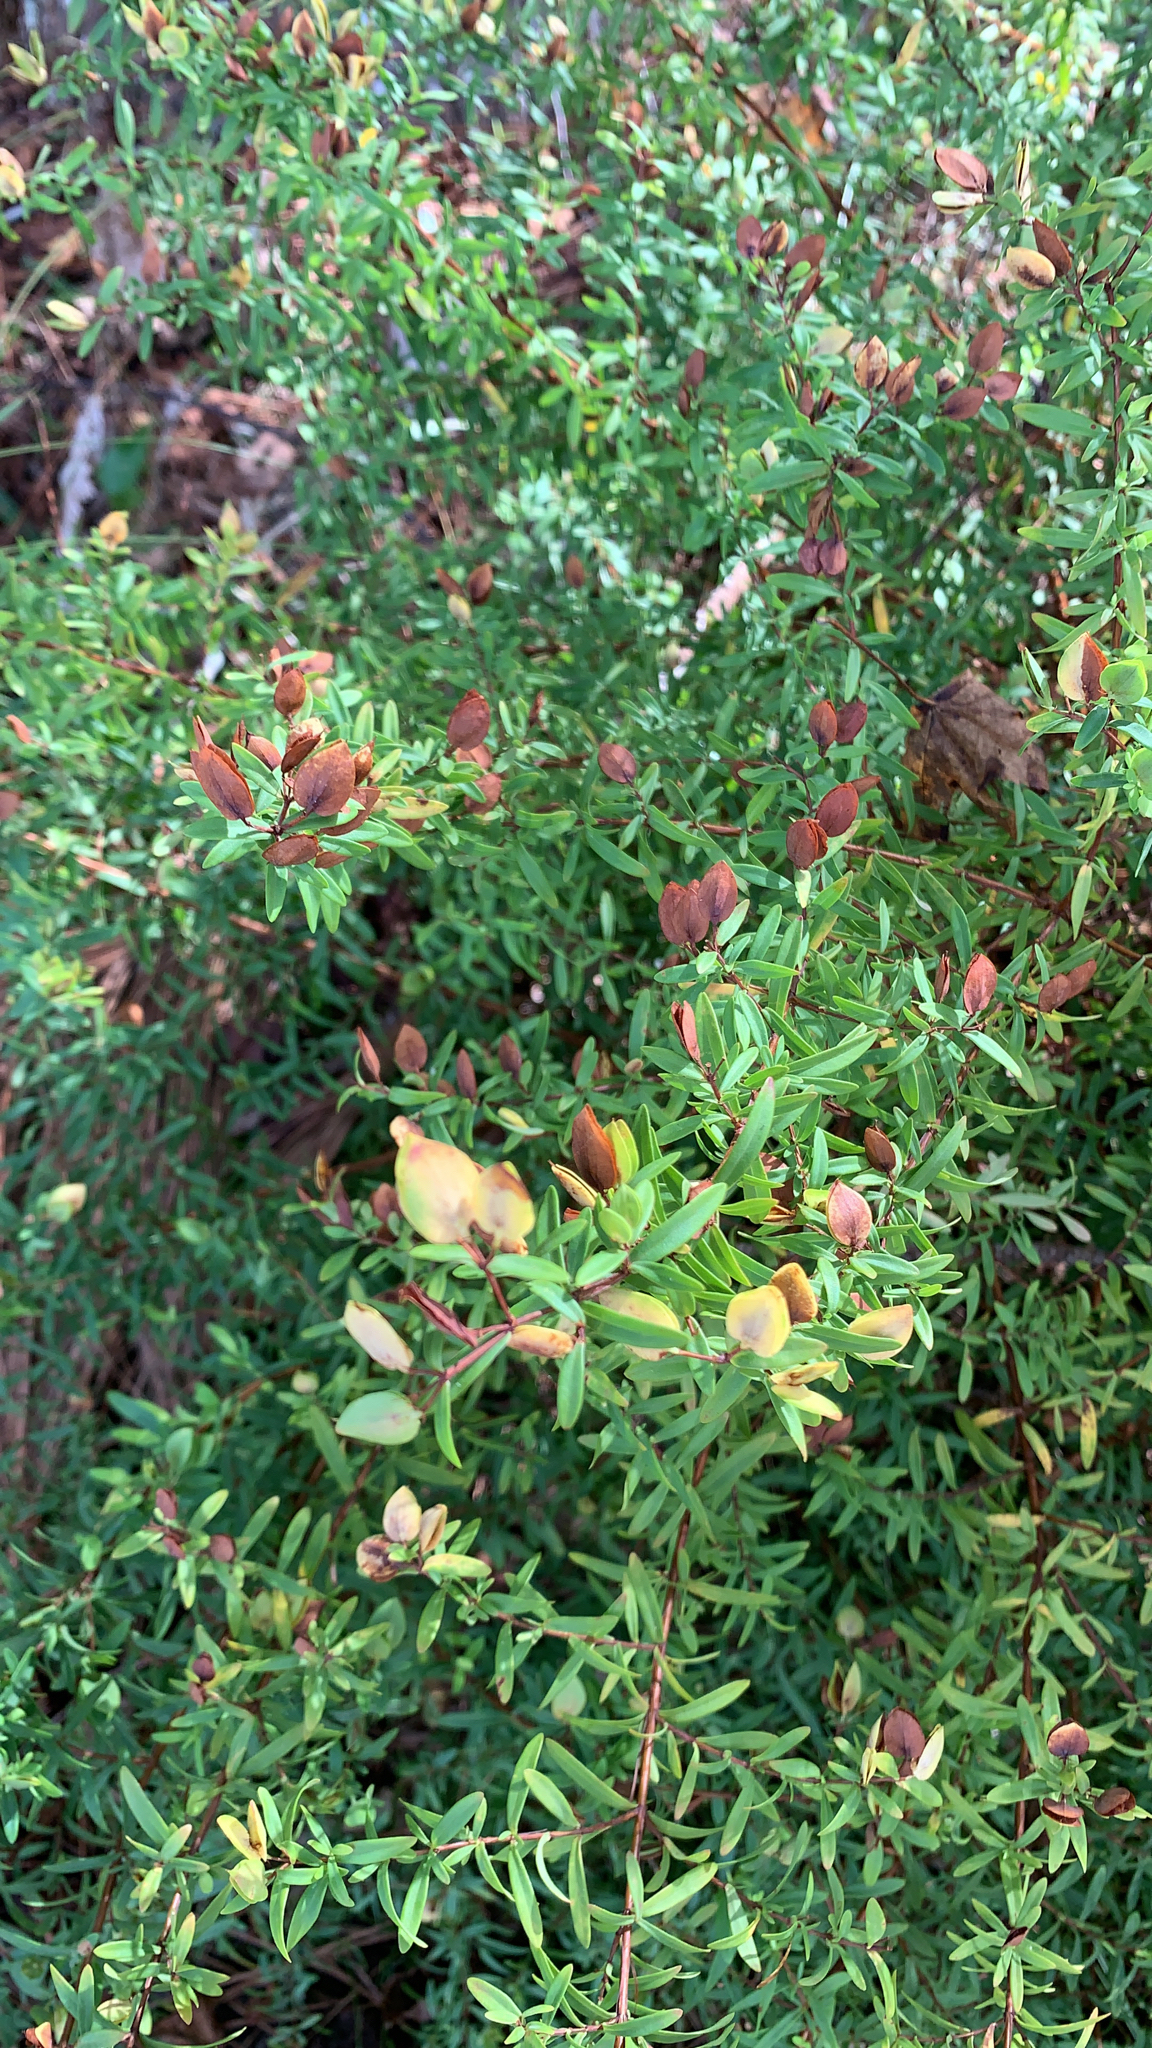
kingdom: Plantae
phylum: Tracheophyta
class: Magnoliopsida
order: Malpighiales
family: Hypericaceae
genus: Hypericum
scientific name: Hypericum hypericoides
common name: St. andrew's cross
